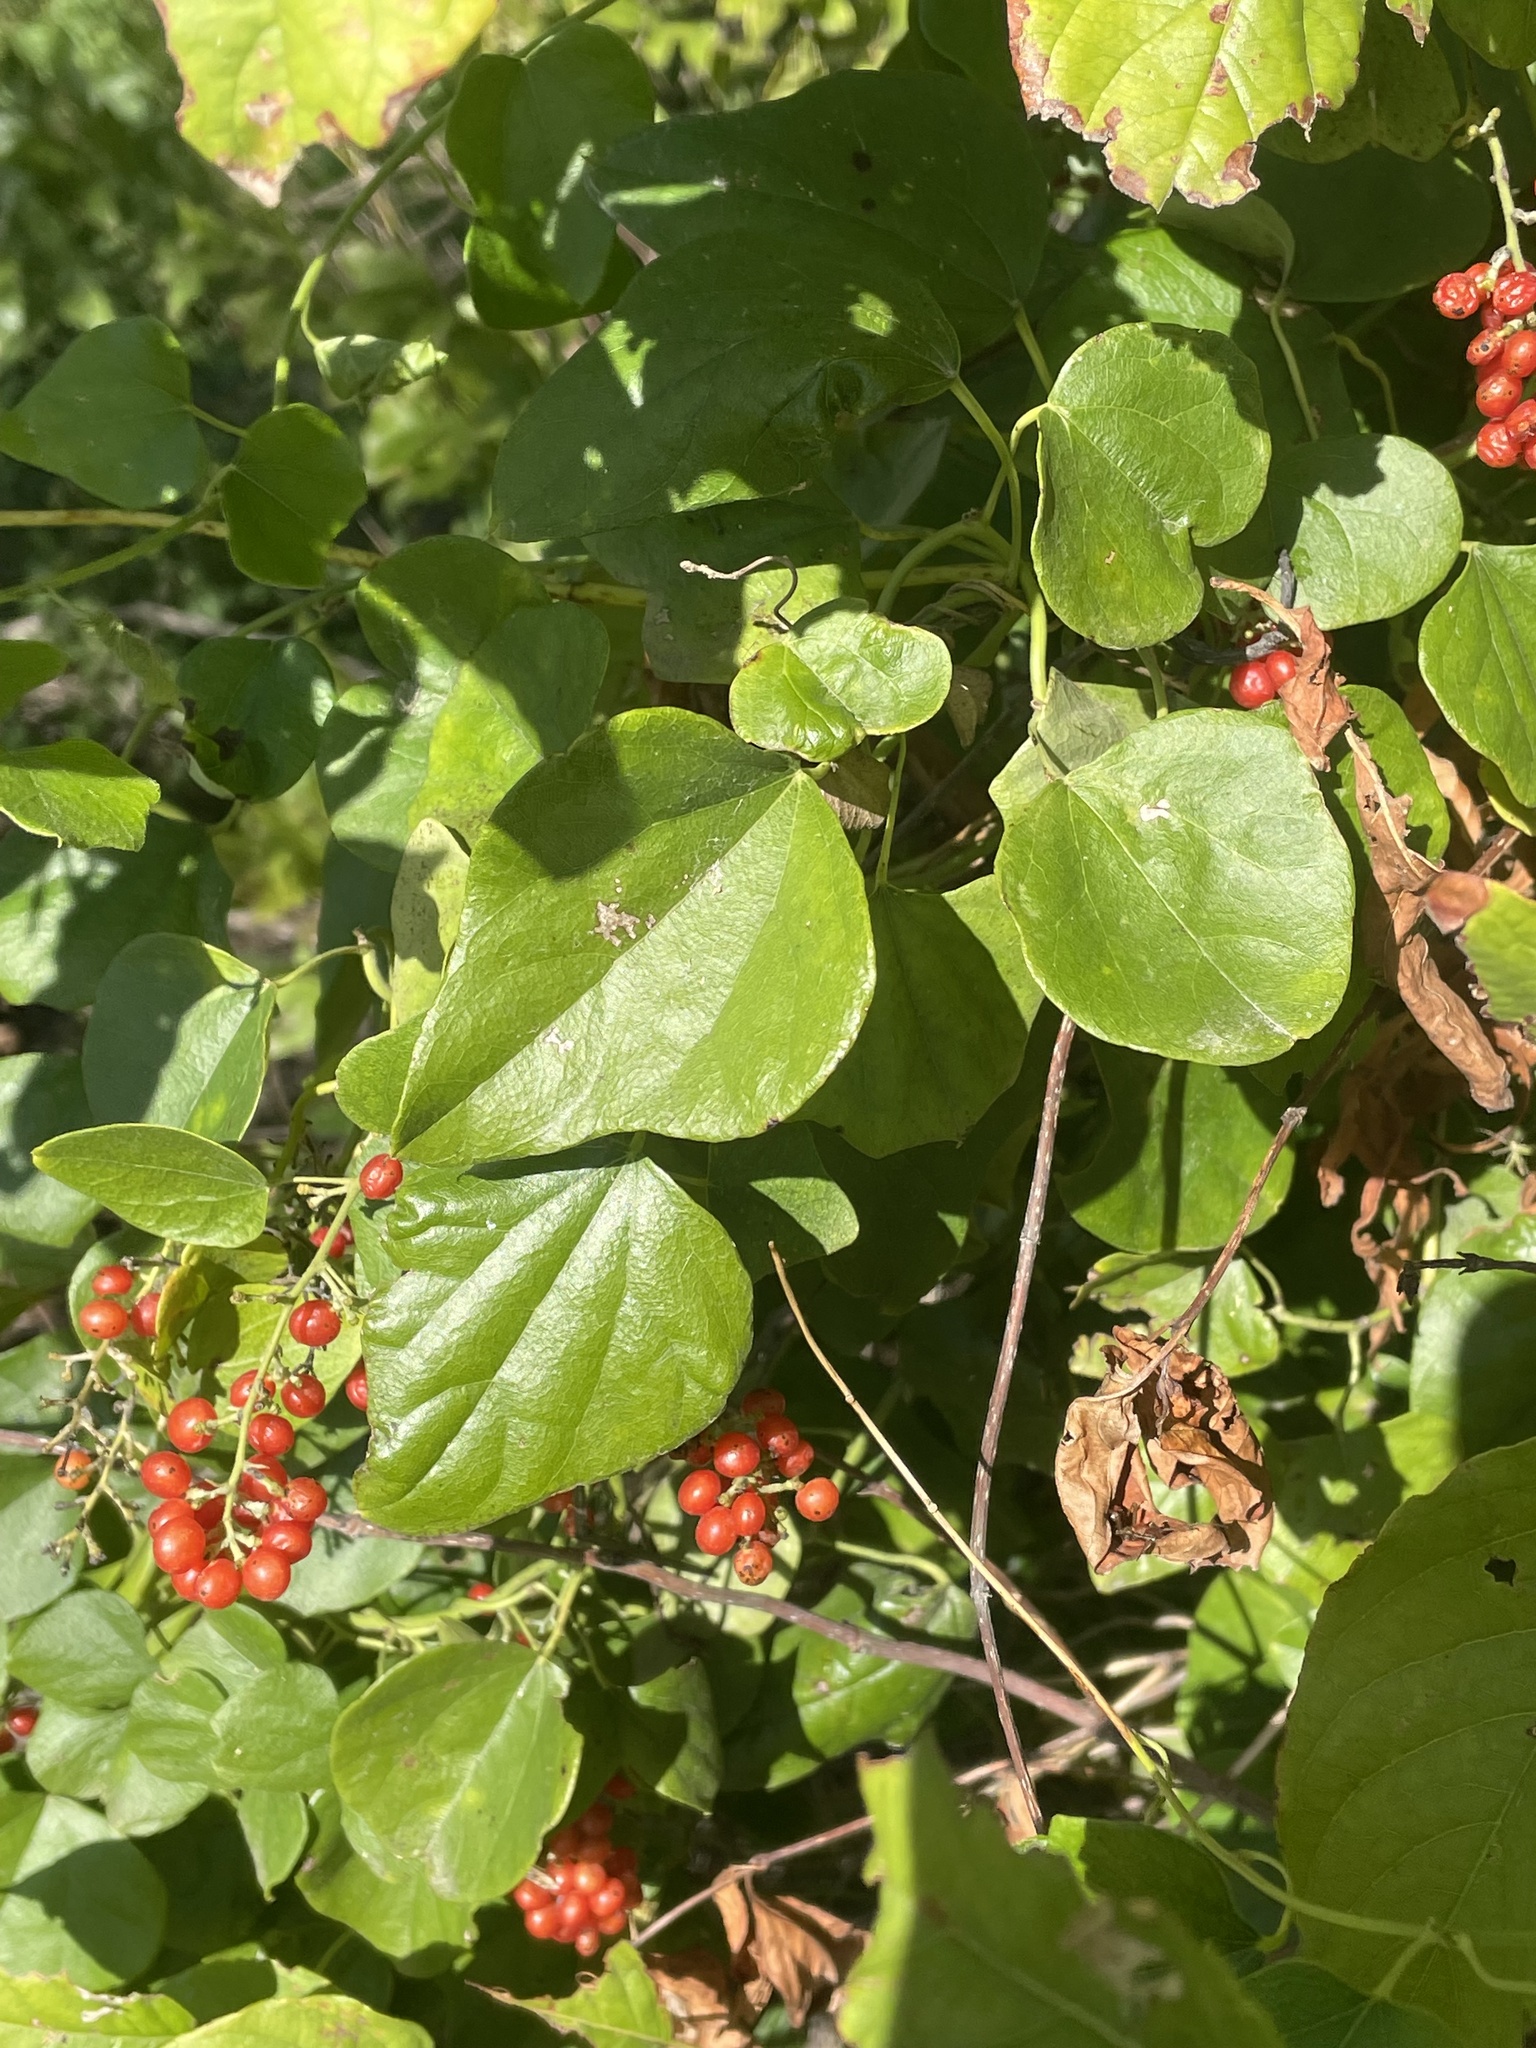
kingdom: Plantae
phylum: Tracheophyta
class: Magnoliopsida
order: Ranunculales
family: Menispermaceae
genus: Cocculus
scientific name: Cocculus carolinus
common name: Carolina moonseed
